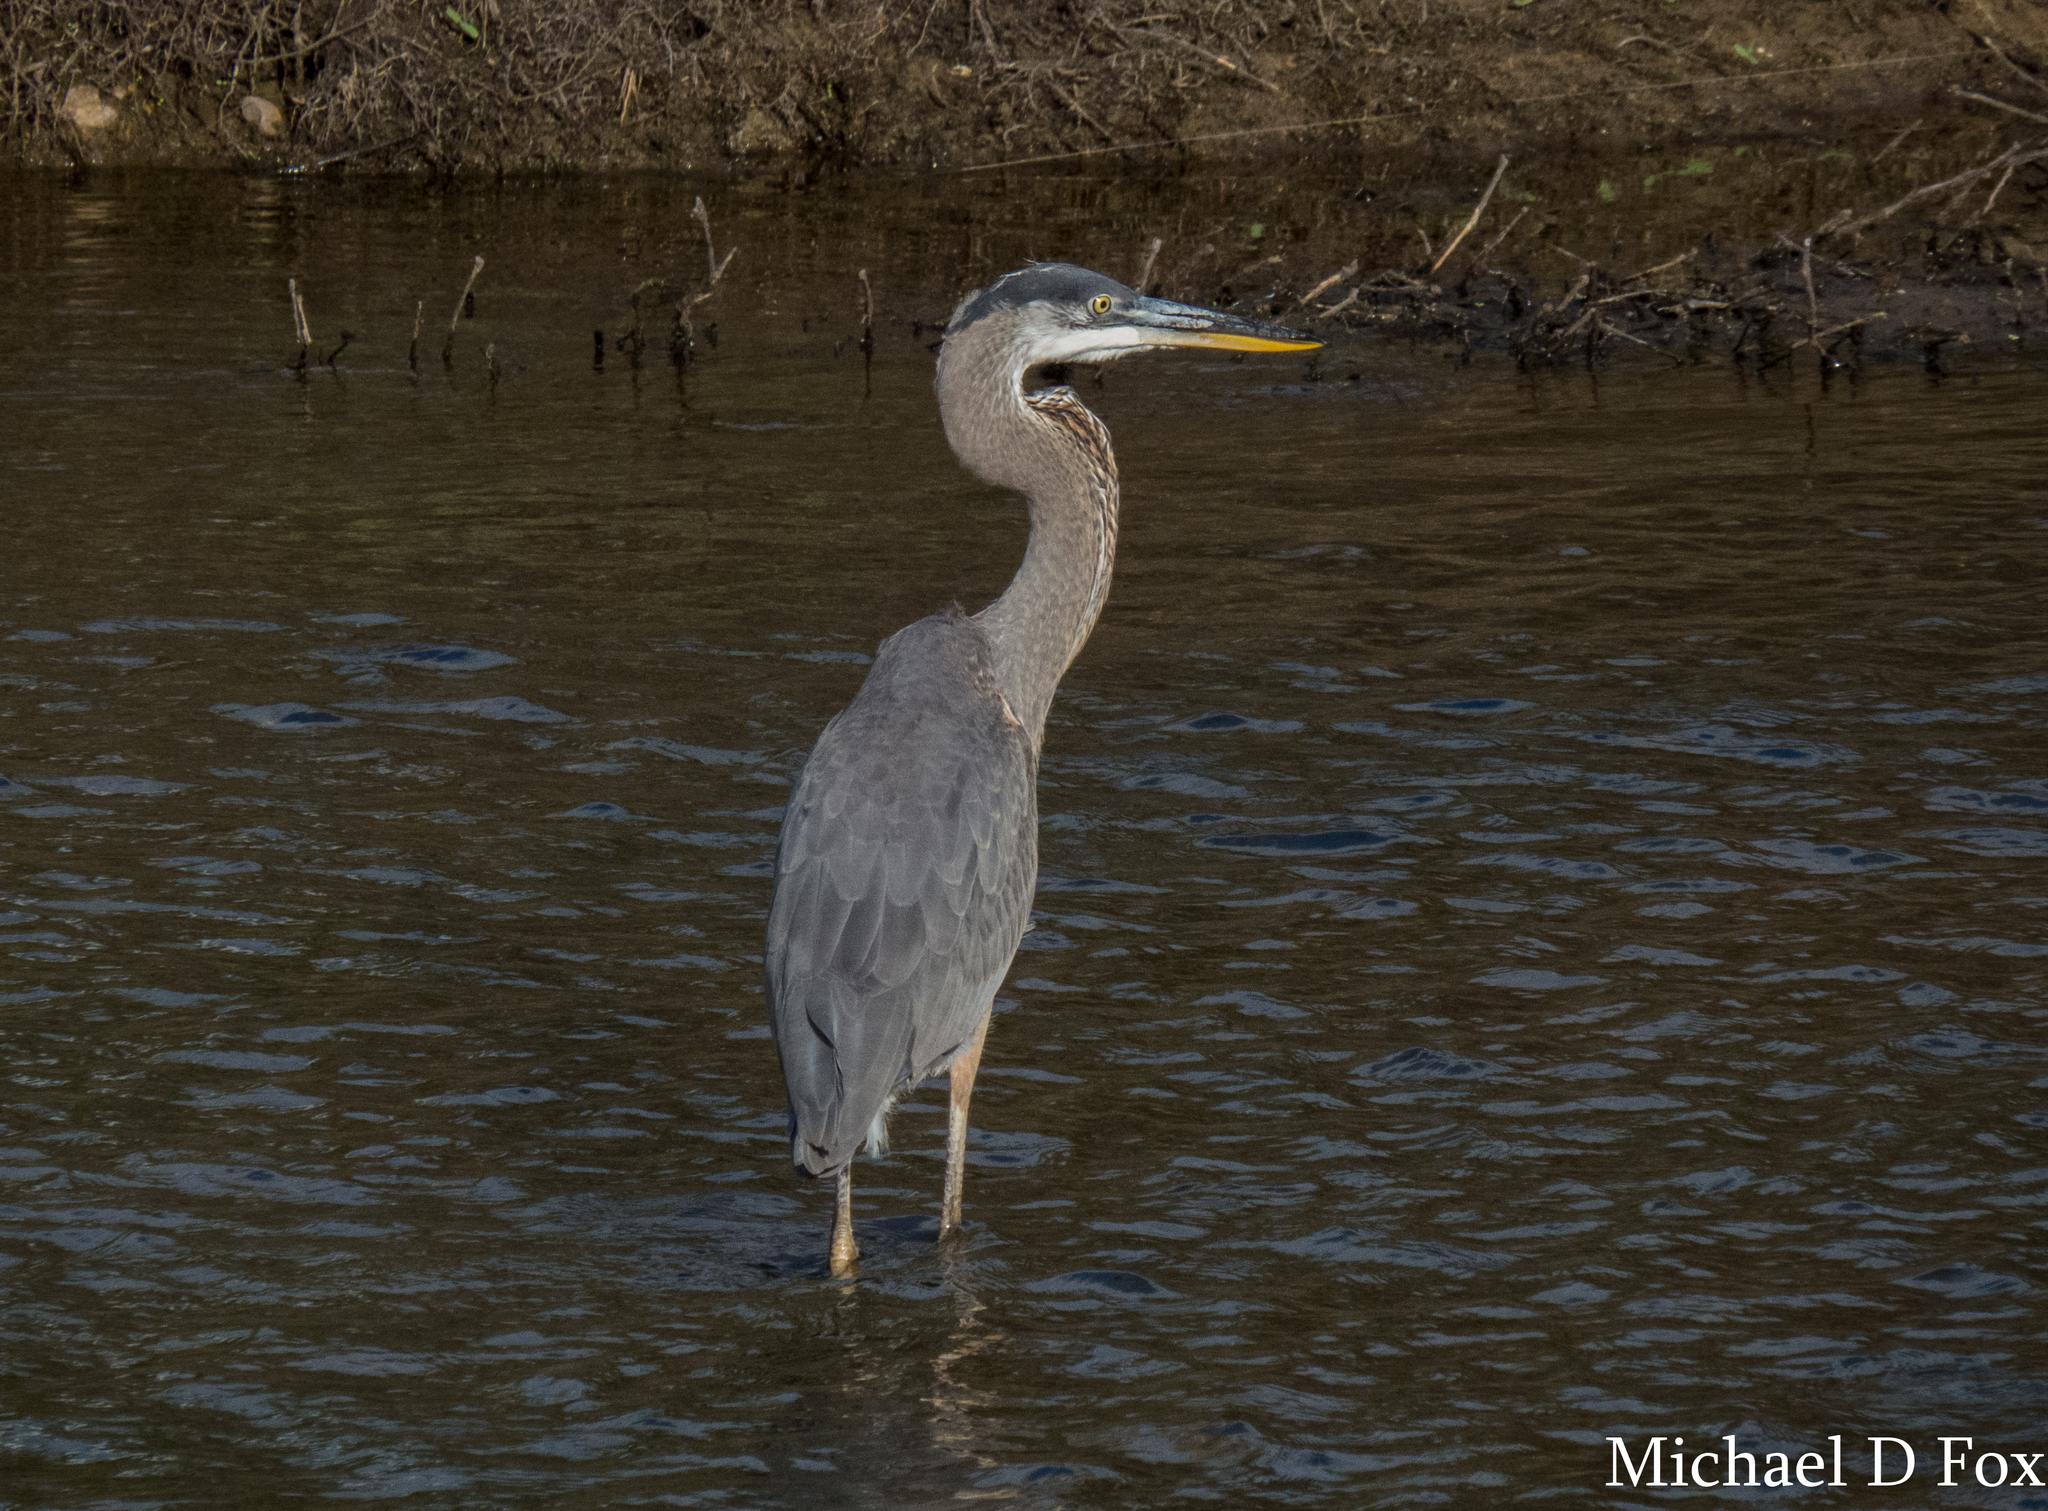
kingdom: Animalia
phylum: Chordata
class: Aves
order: Pelecaniformes
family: Ardeidae
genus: Ardea
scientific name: Ardea herodias
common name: Great blue heron
